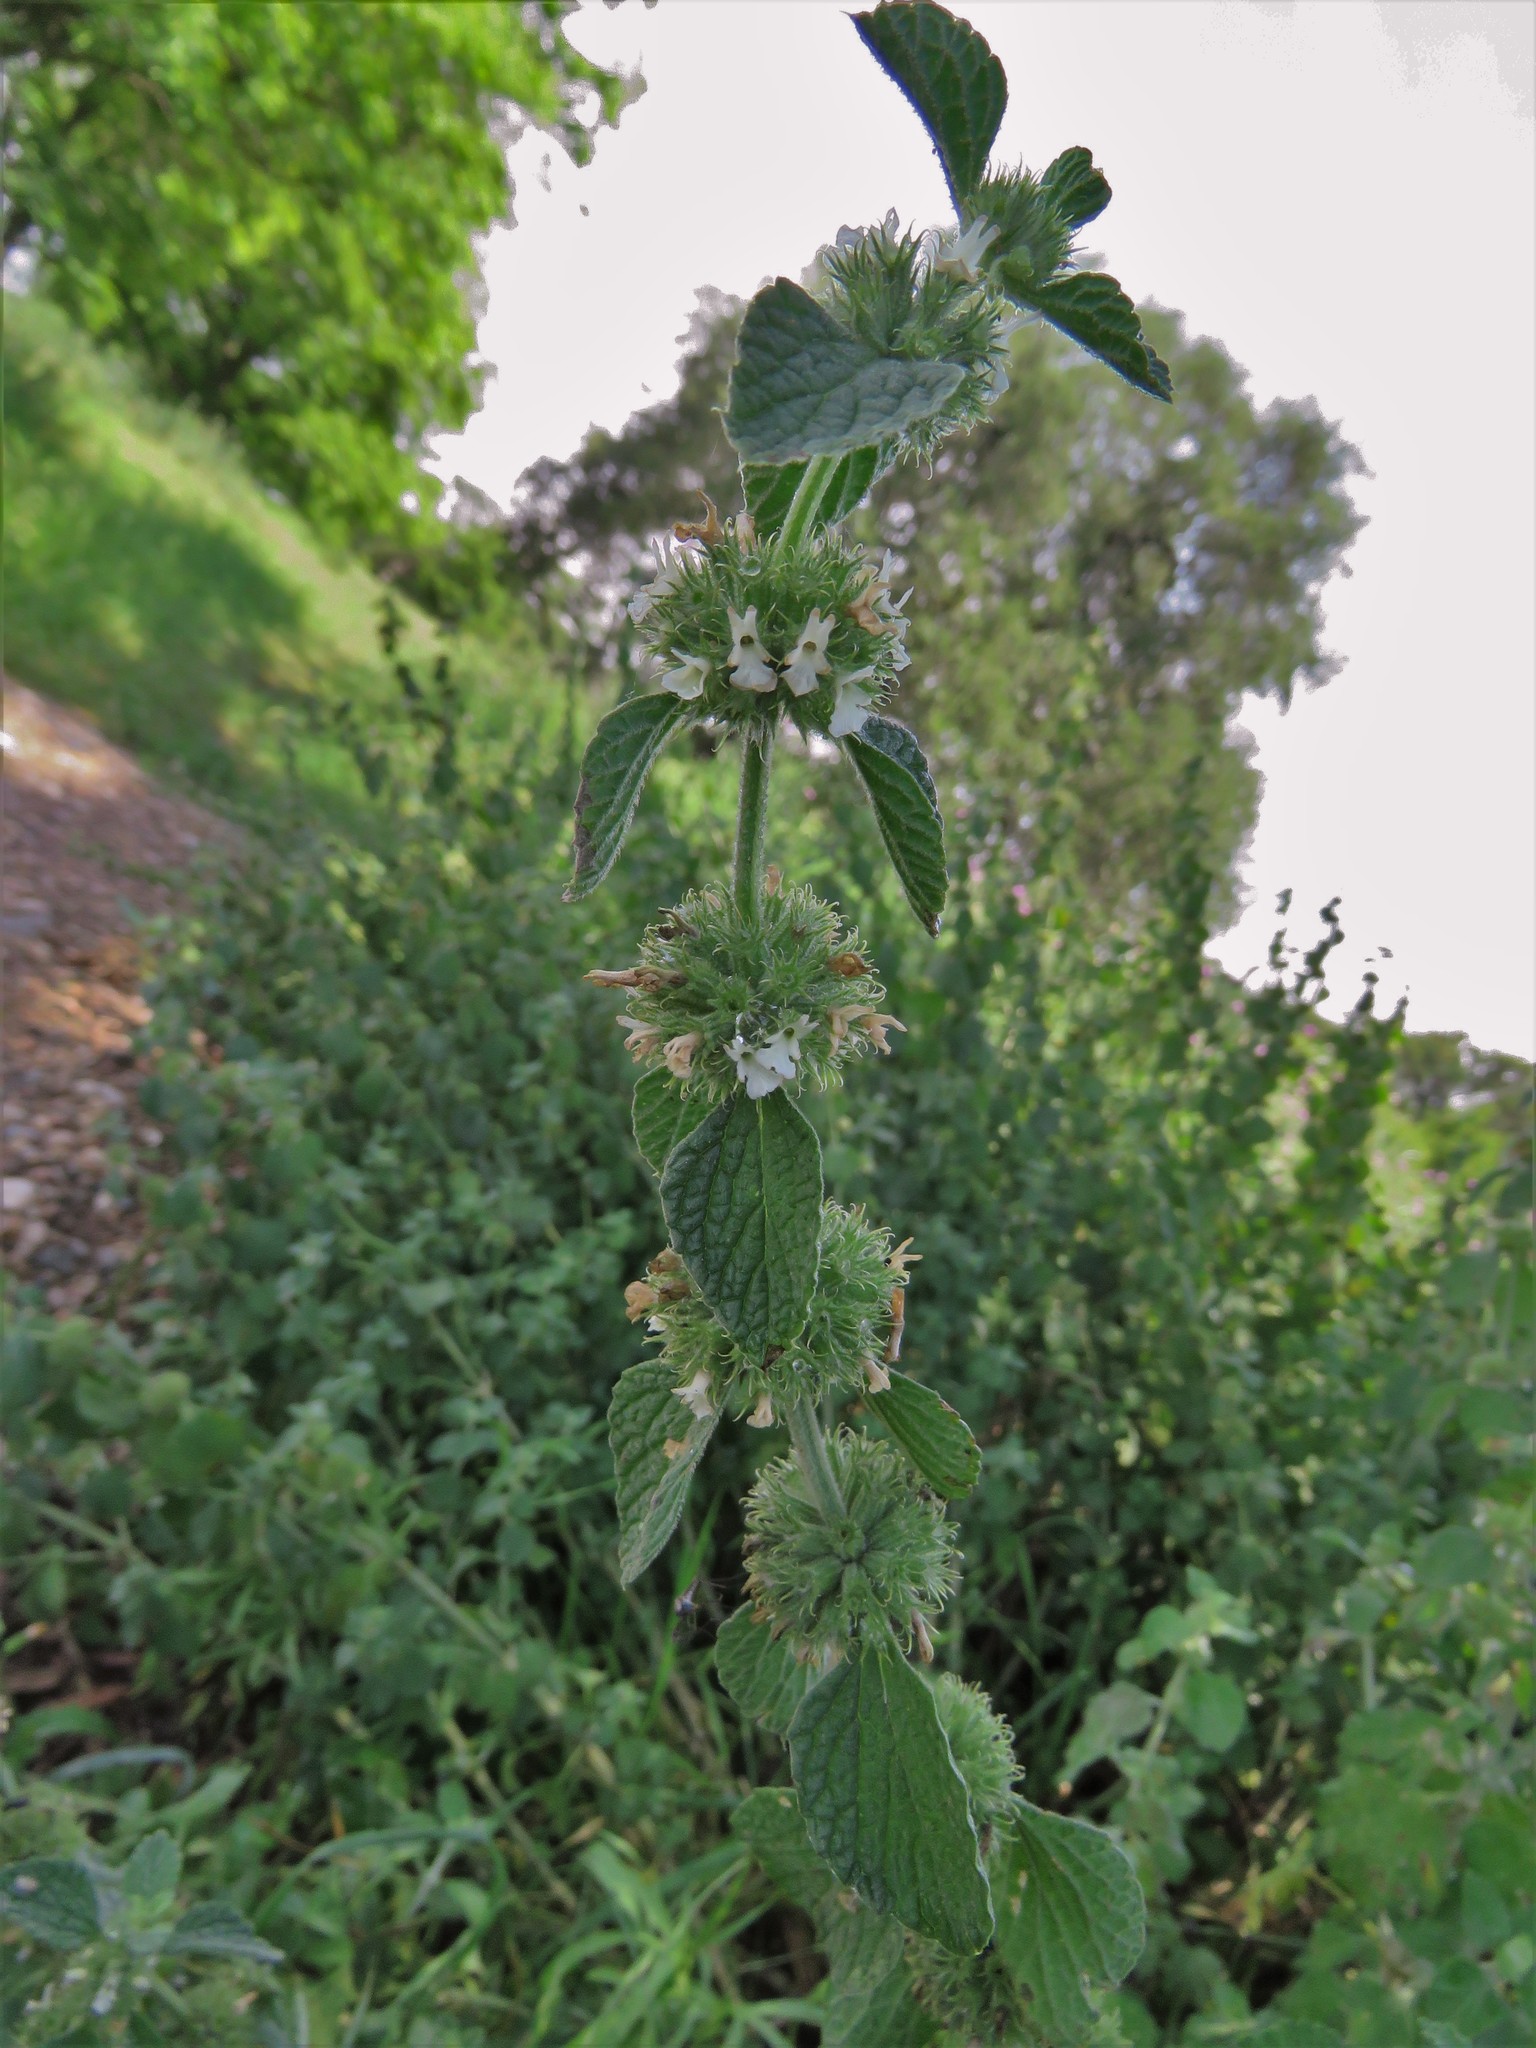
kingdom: Plantae
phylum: Tracheophyta
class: Magnoliopsida
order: Lamiales
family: Lamiaceae
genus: Marrubium
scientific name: Marrubium vulgare
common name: Horehound
